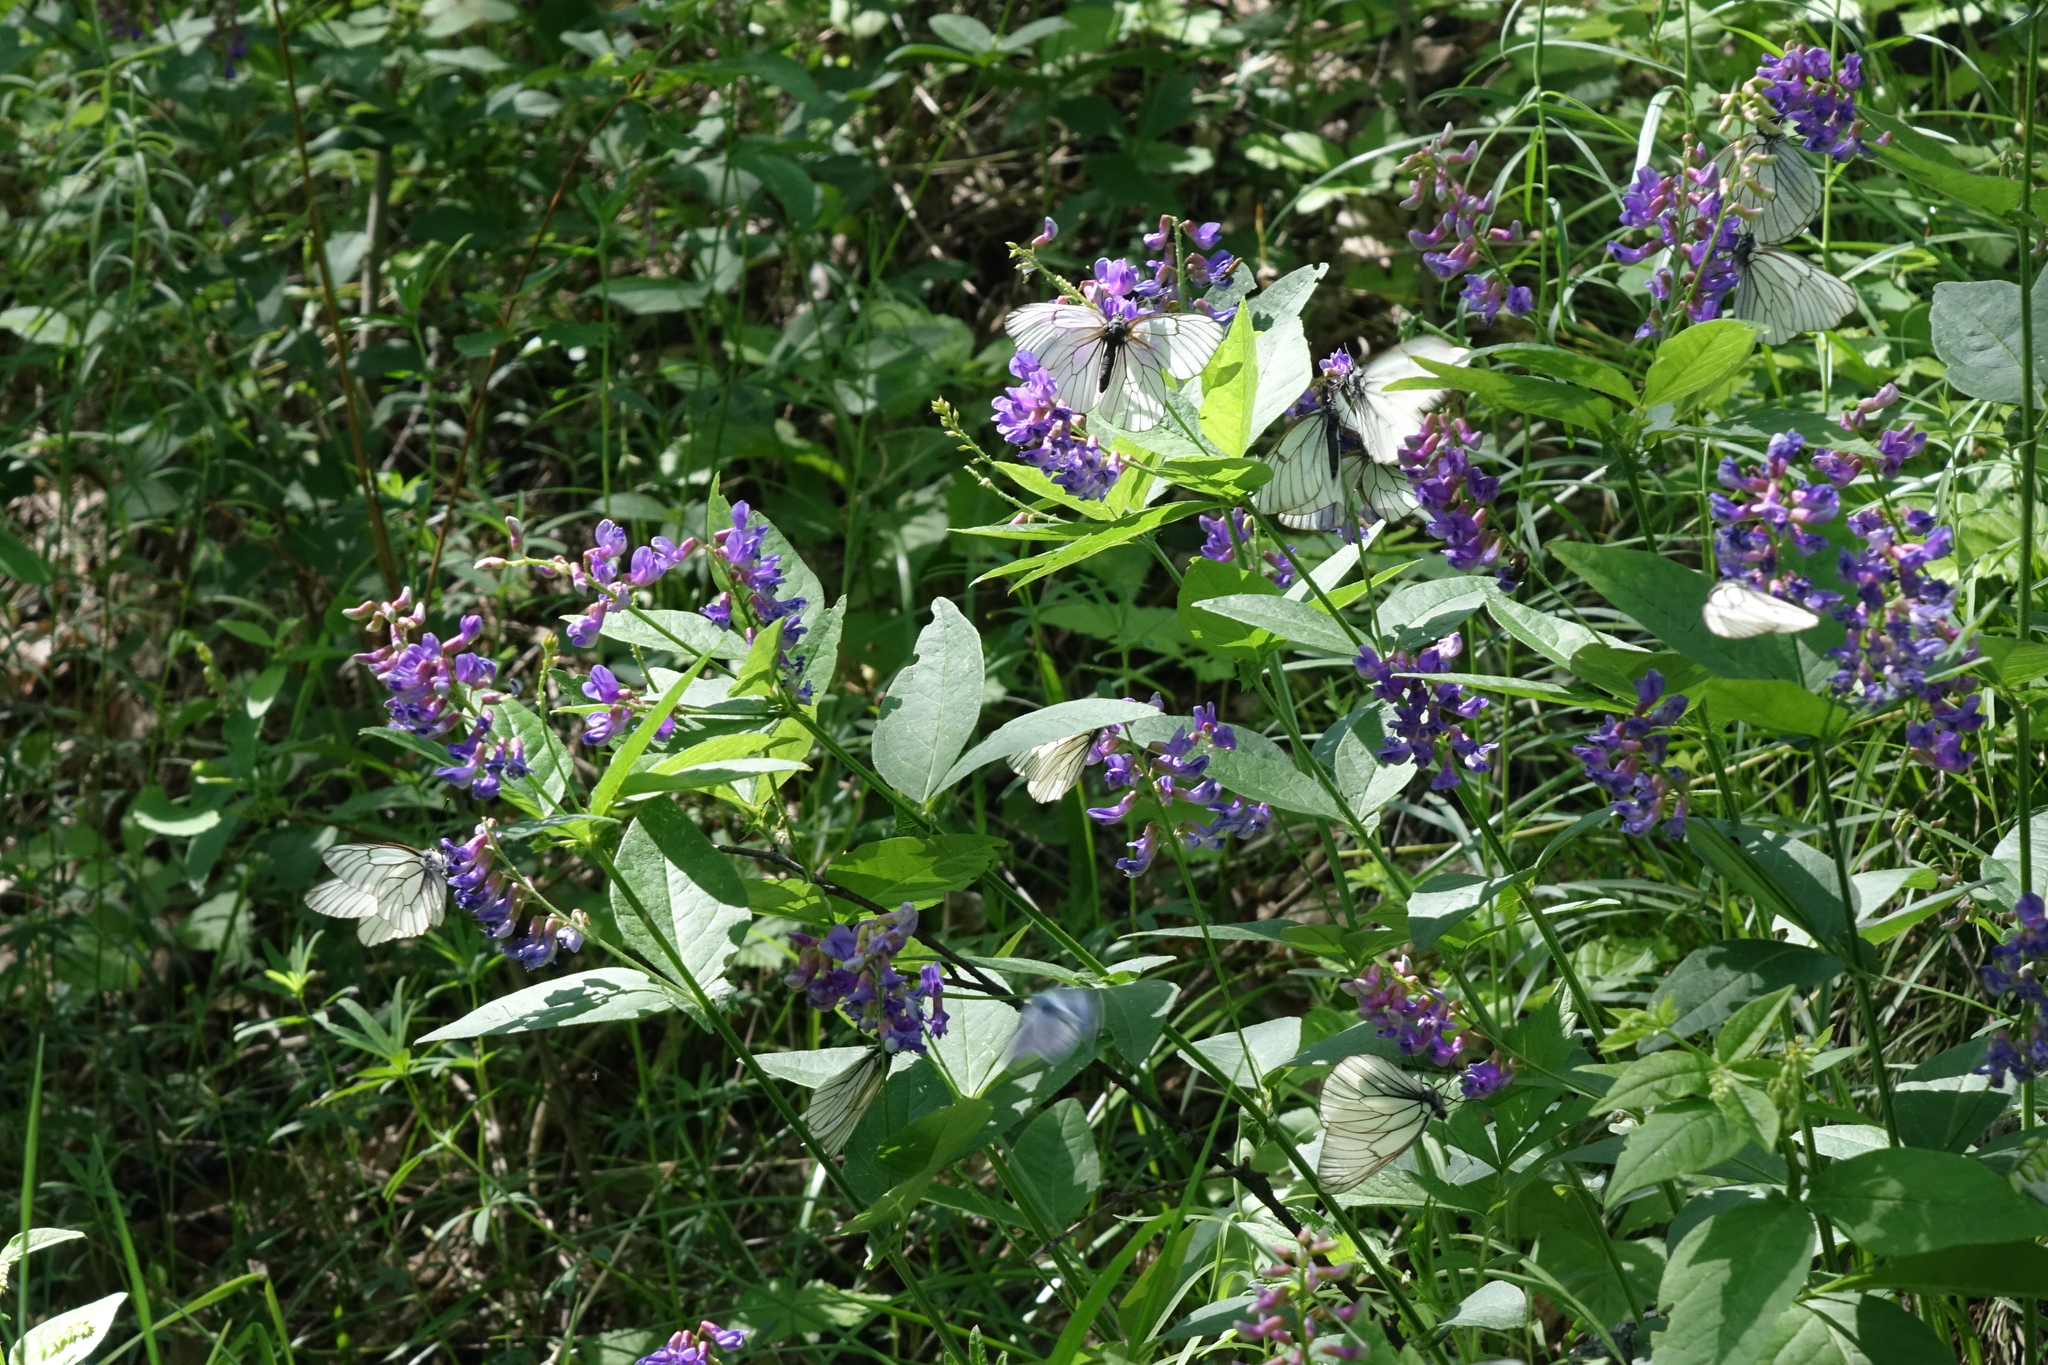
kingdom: Plantae
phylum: Tracheophyta
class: Magnoliopsida
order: Fabales
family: Fabaceae
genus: Vicia
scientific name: Vicia unijuga
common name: Two-leaf vetch
